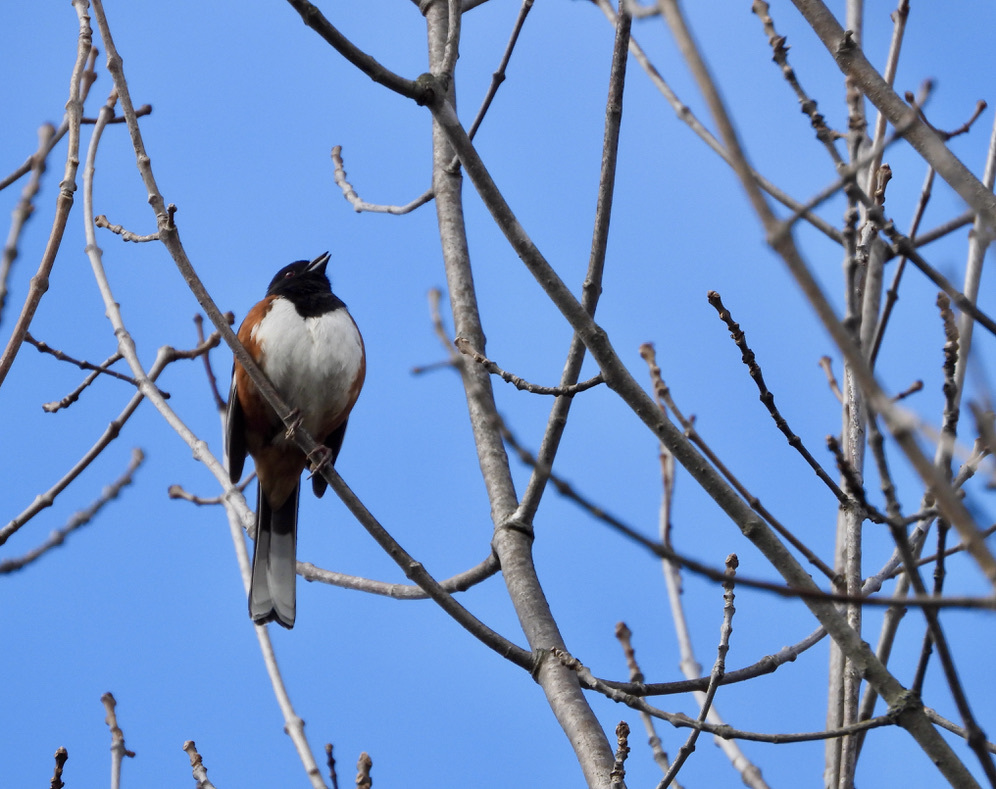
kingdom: Animalia
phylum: Chordata
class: Aves
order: Passeriformes
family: Passerellidae
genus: Pipilo
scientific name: Pipilo erythrophthalmus
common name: Eastern towhee
